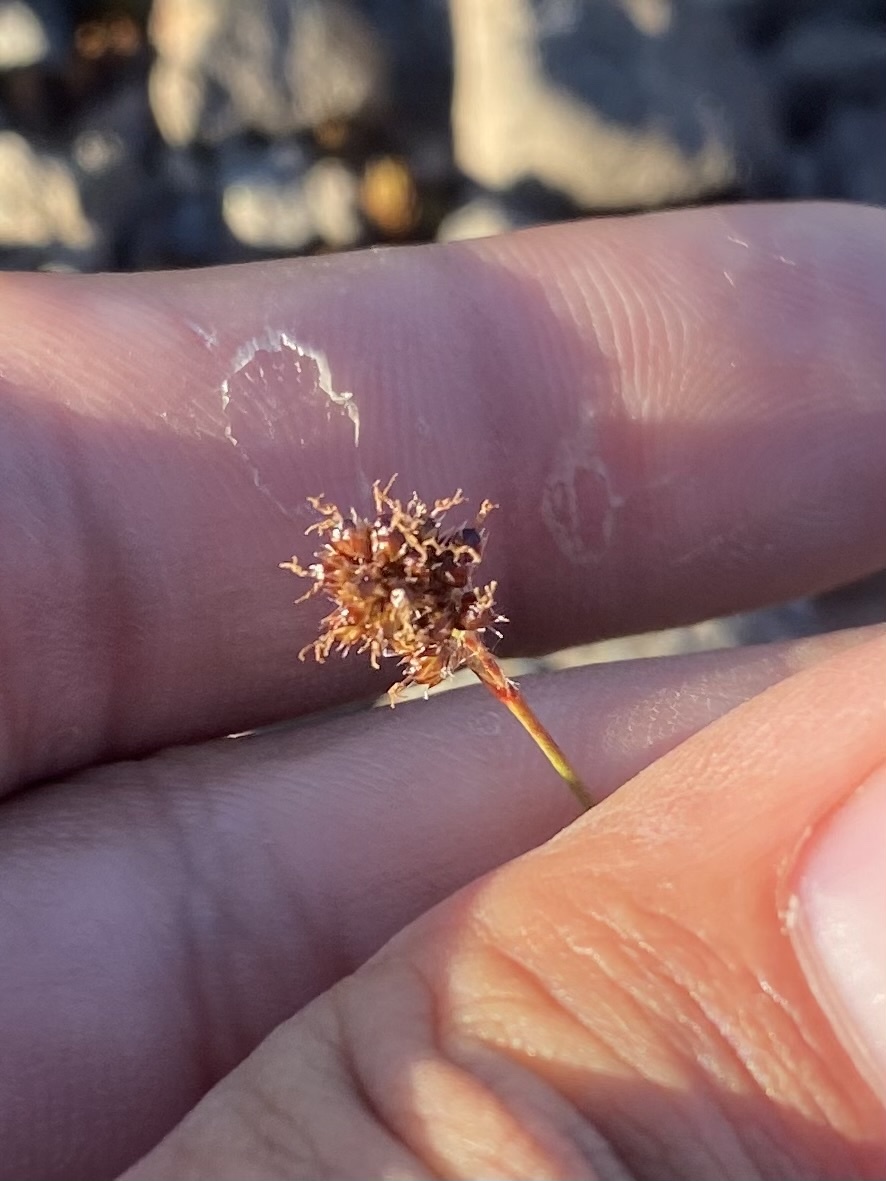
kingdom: Plantae
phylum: Tracheophyta
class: Liliopsida
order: Poales
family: Juncaceae
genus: Luzula
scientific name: Luzula confusa
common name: Northern wood rush
